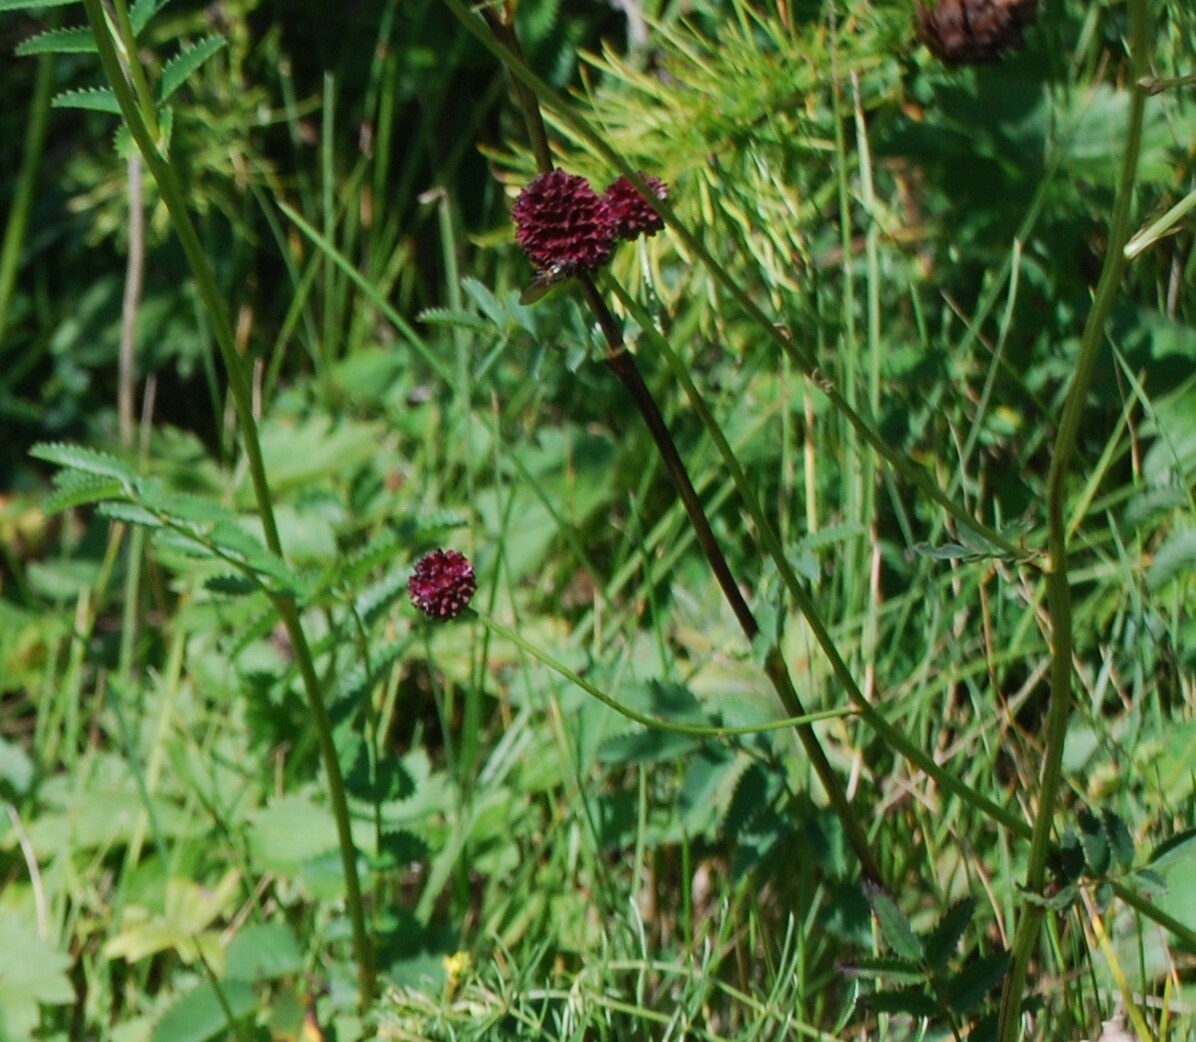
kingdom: Plantae
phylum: Tracheophyta
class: Magnoliopsida
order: Rosales
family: Rosaceae
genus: Sanguisorba
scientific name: Sanguisorba officinalis
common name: Great burnet
